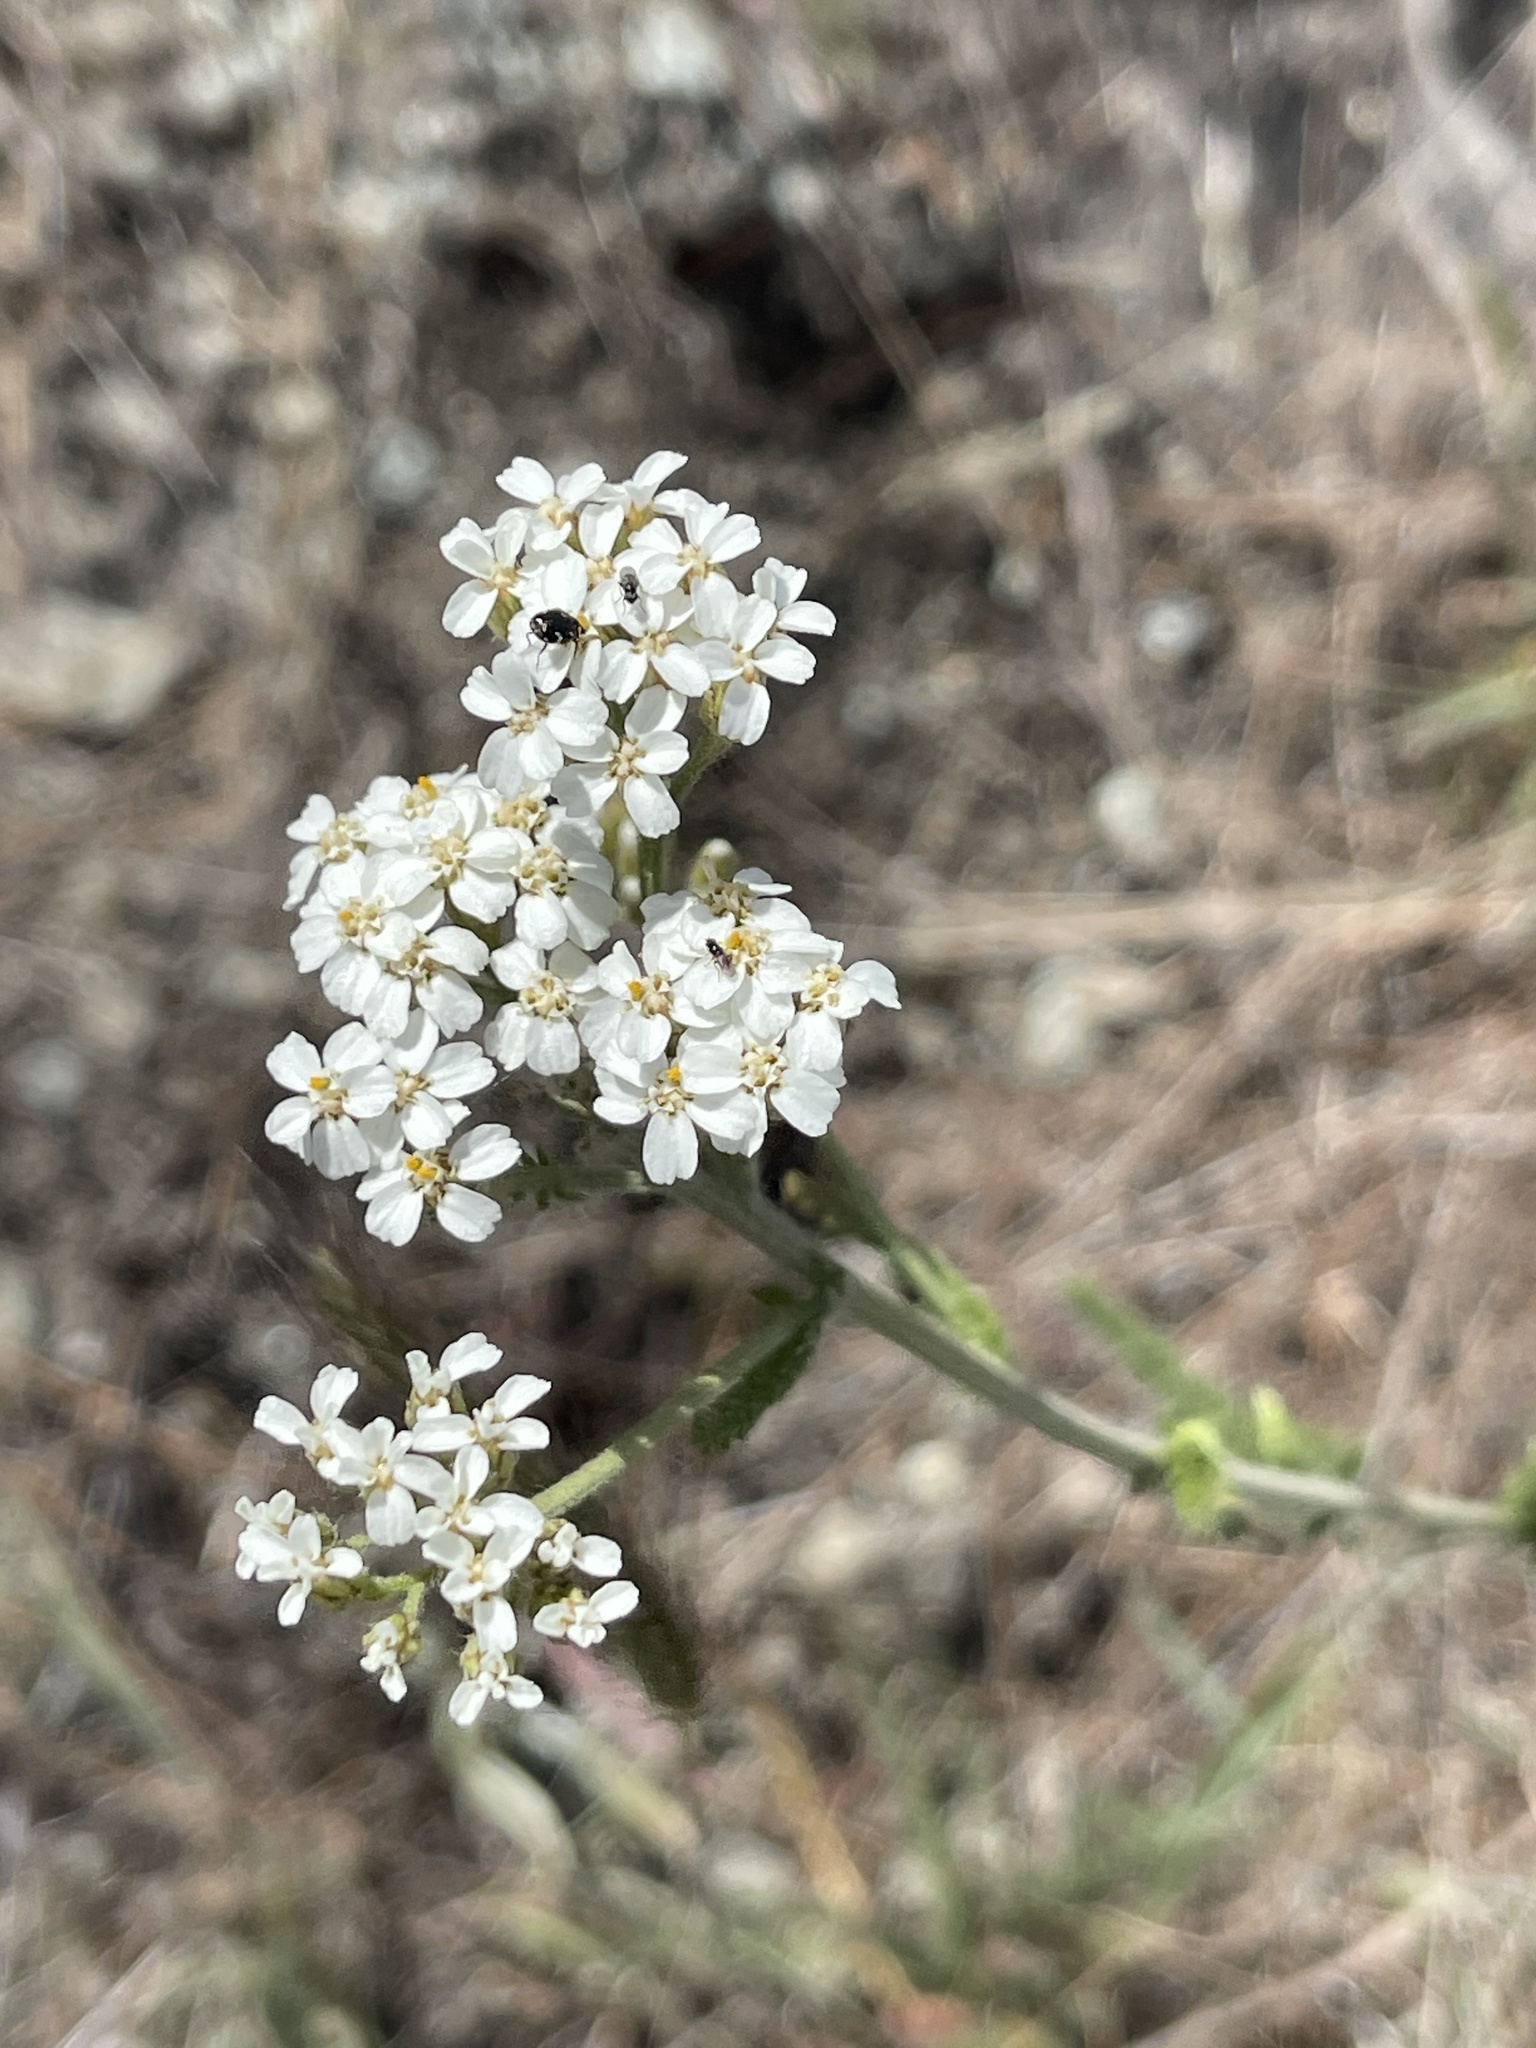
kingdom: Plantae
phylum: Tracheophyta
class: Magnoliopsida
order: Asterales
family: Asteraceae
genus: Achillea
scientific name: Achillea millefolium
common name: Yarrow
